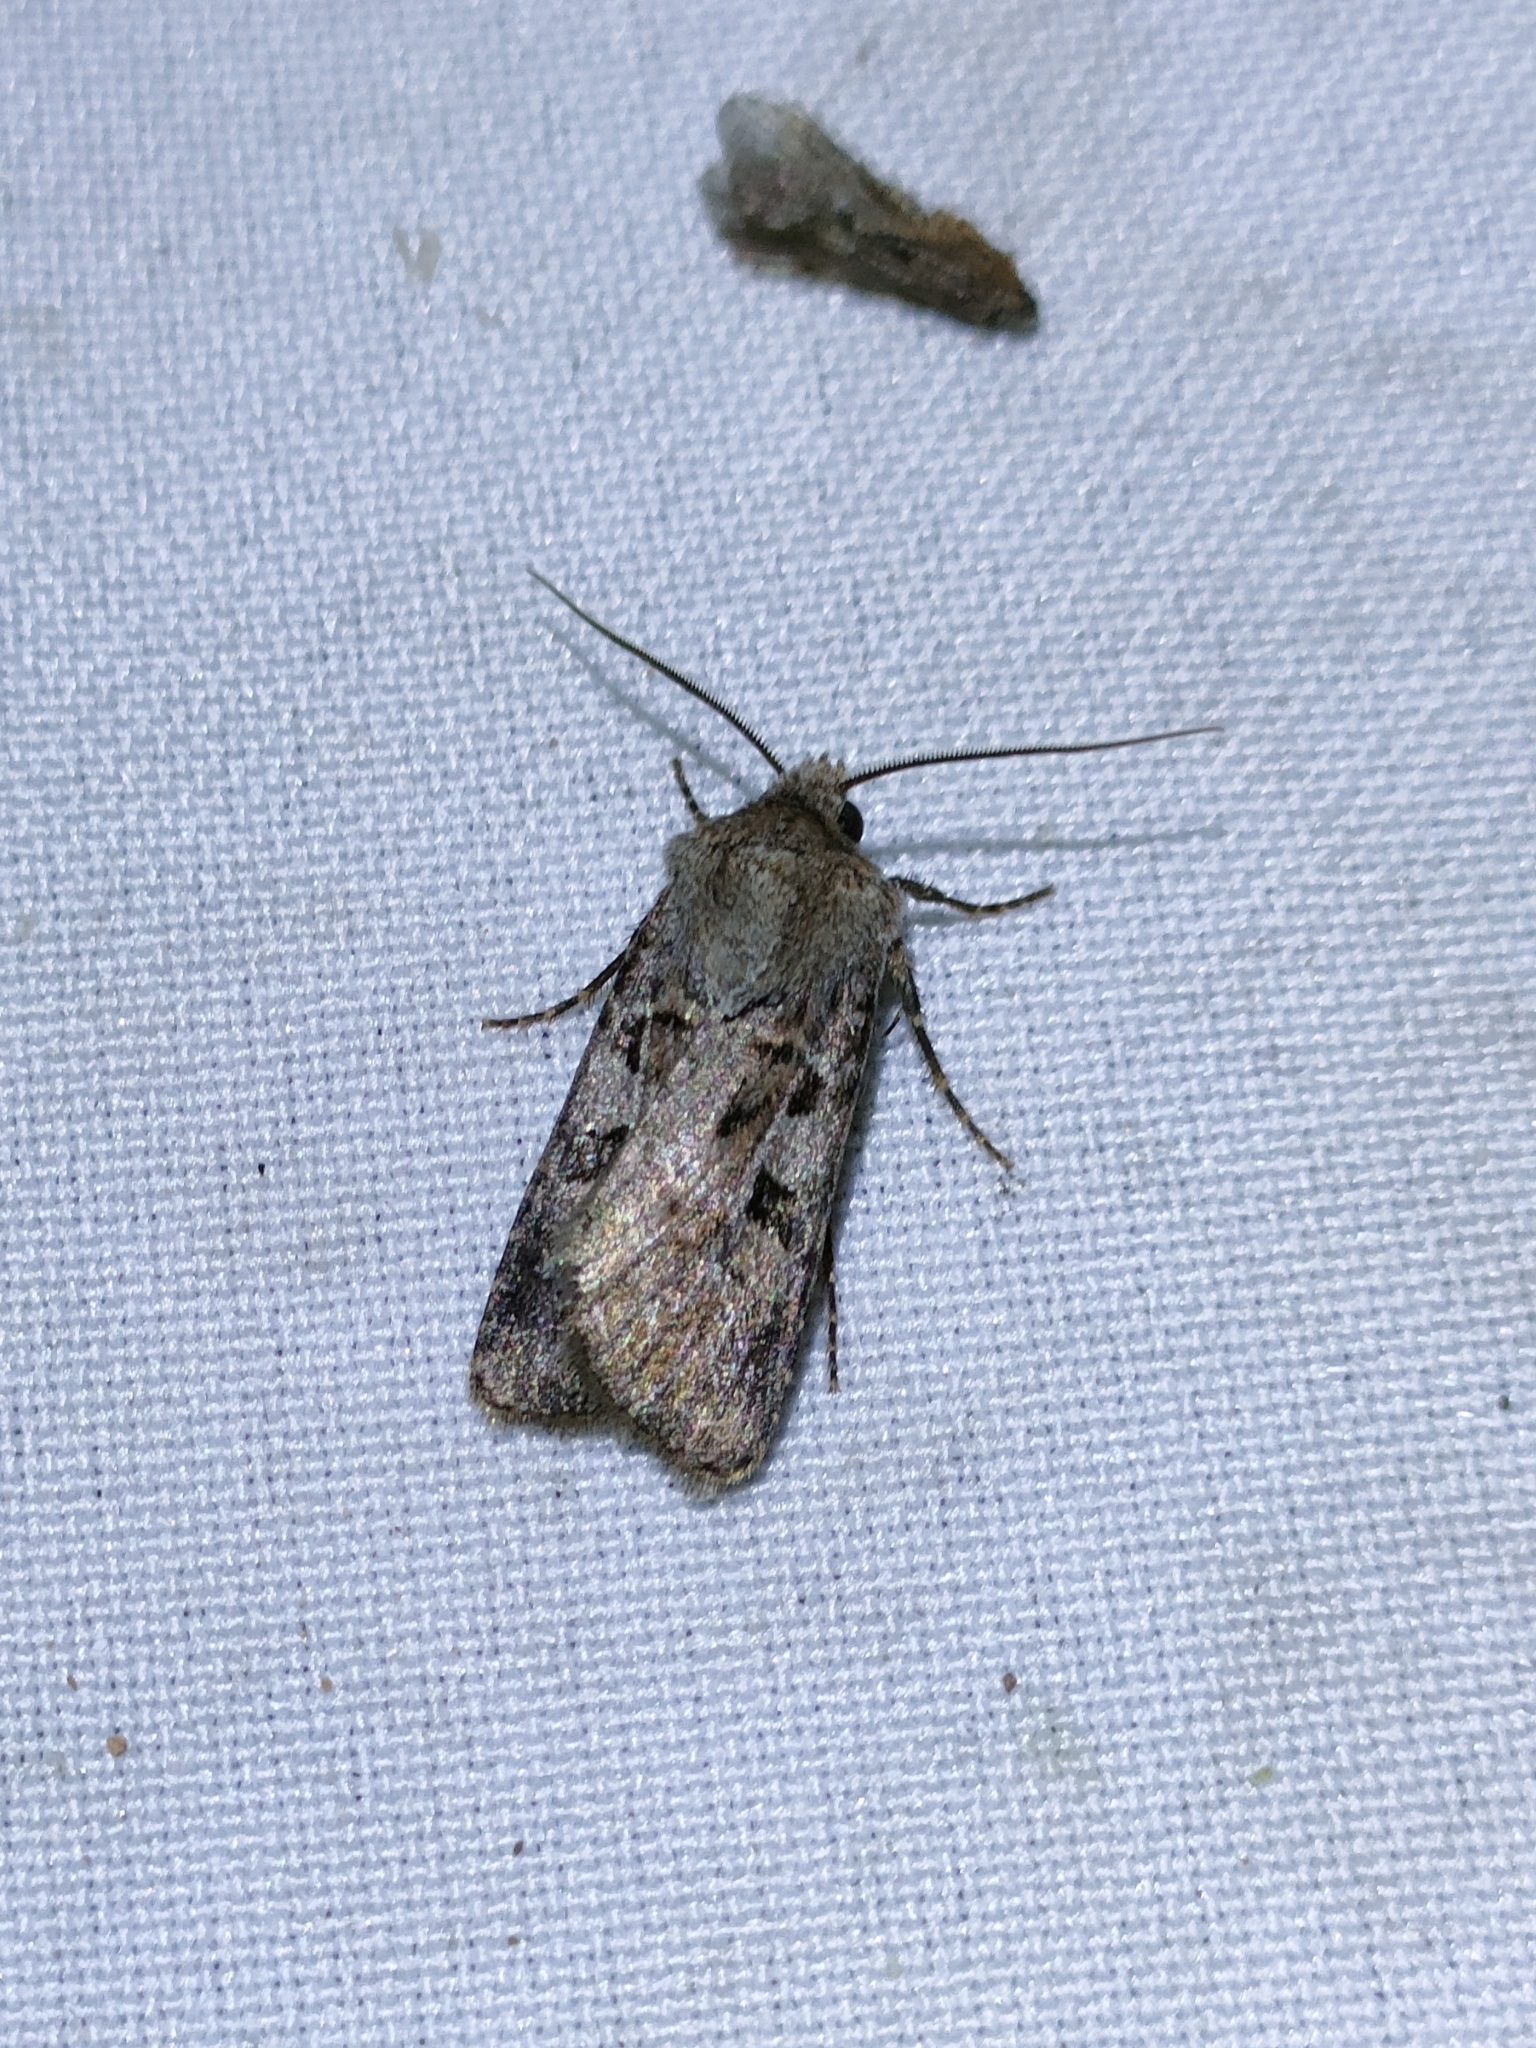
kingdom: Animalia
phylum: Arthropoda
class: Insecta
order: Lepidoptera
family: Noctuidae
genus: Euxoa
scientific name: Euxoa recussa
